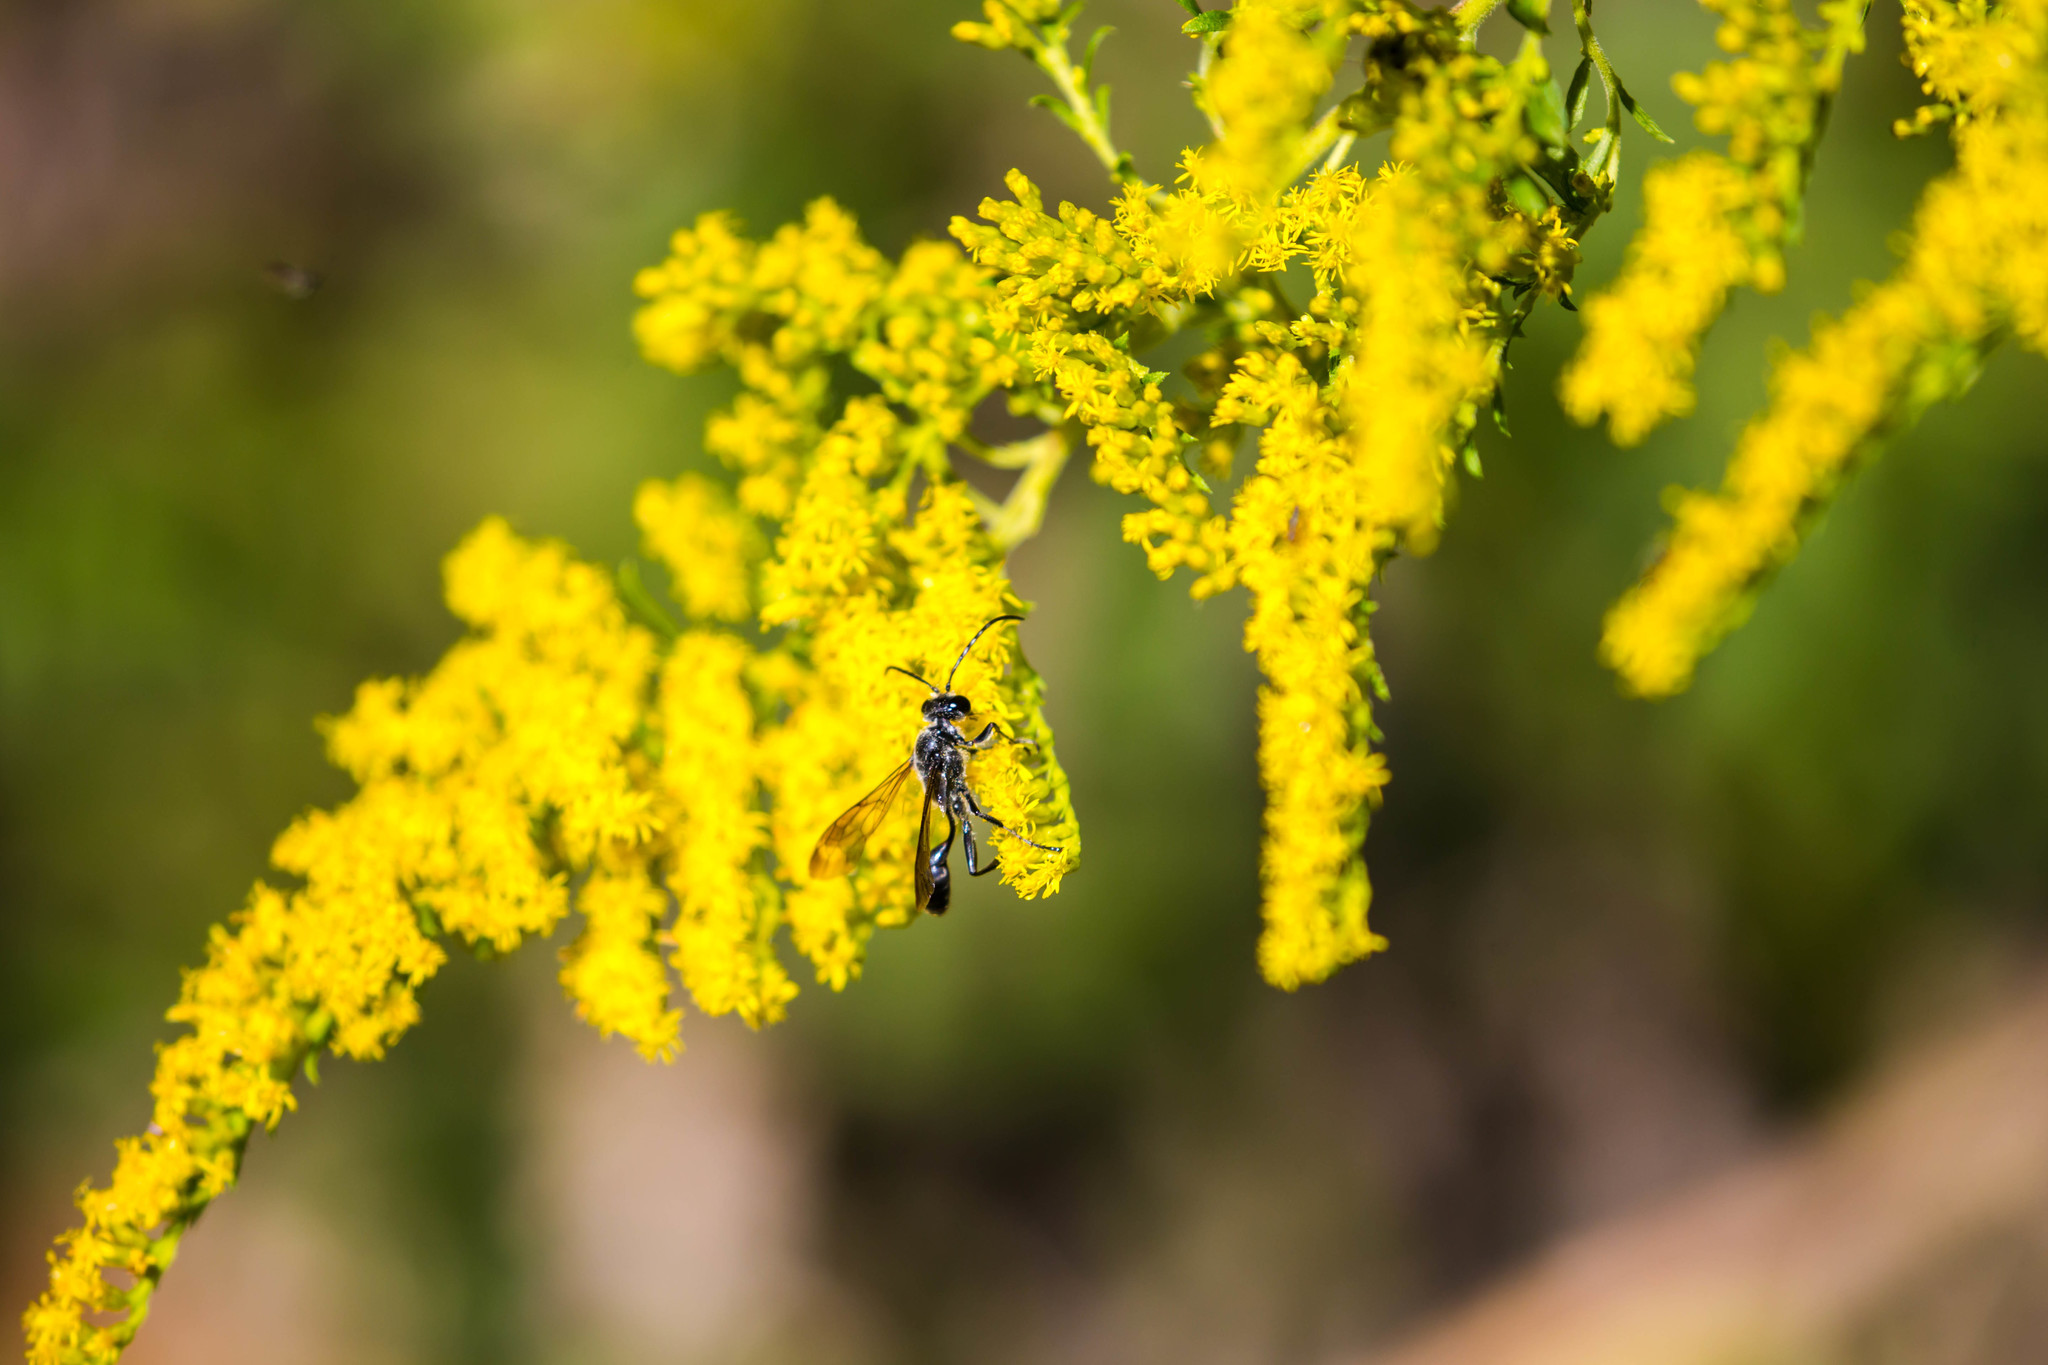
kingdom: Animalia
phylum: Arthropoda
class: Insecta
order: Hymenoptera
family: Sphecidae
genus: Isodontia
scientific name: Isodontia mexicana
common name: Mud dauber
